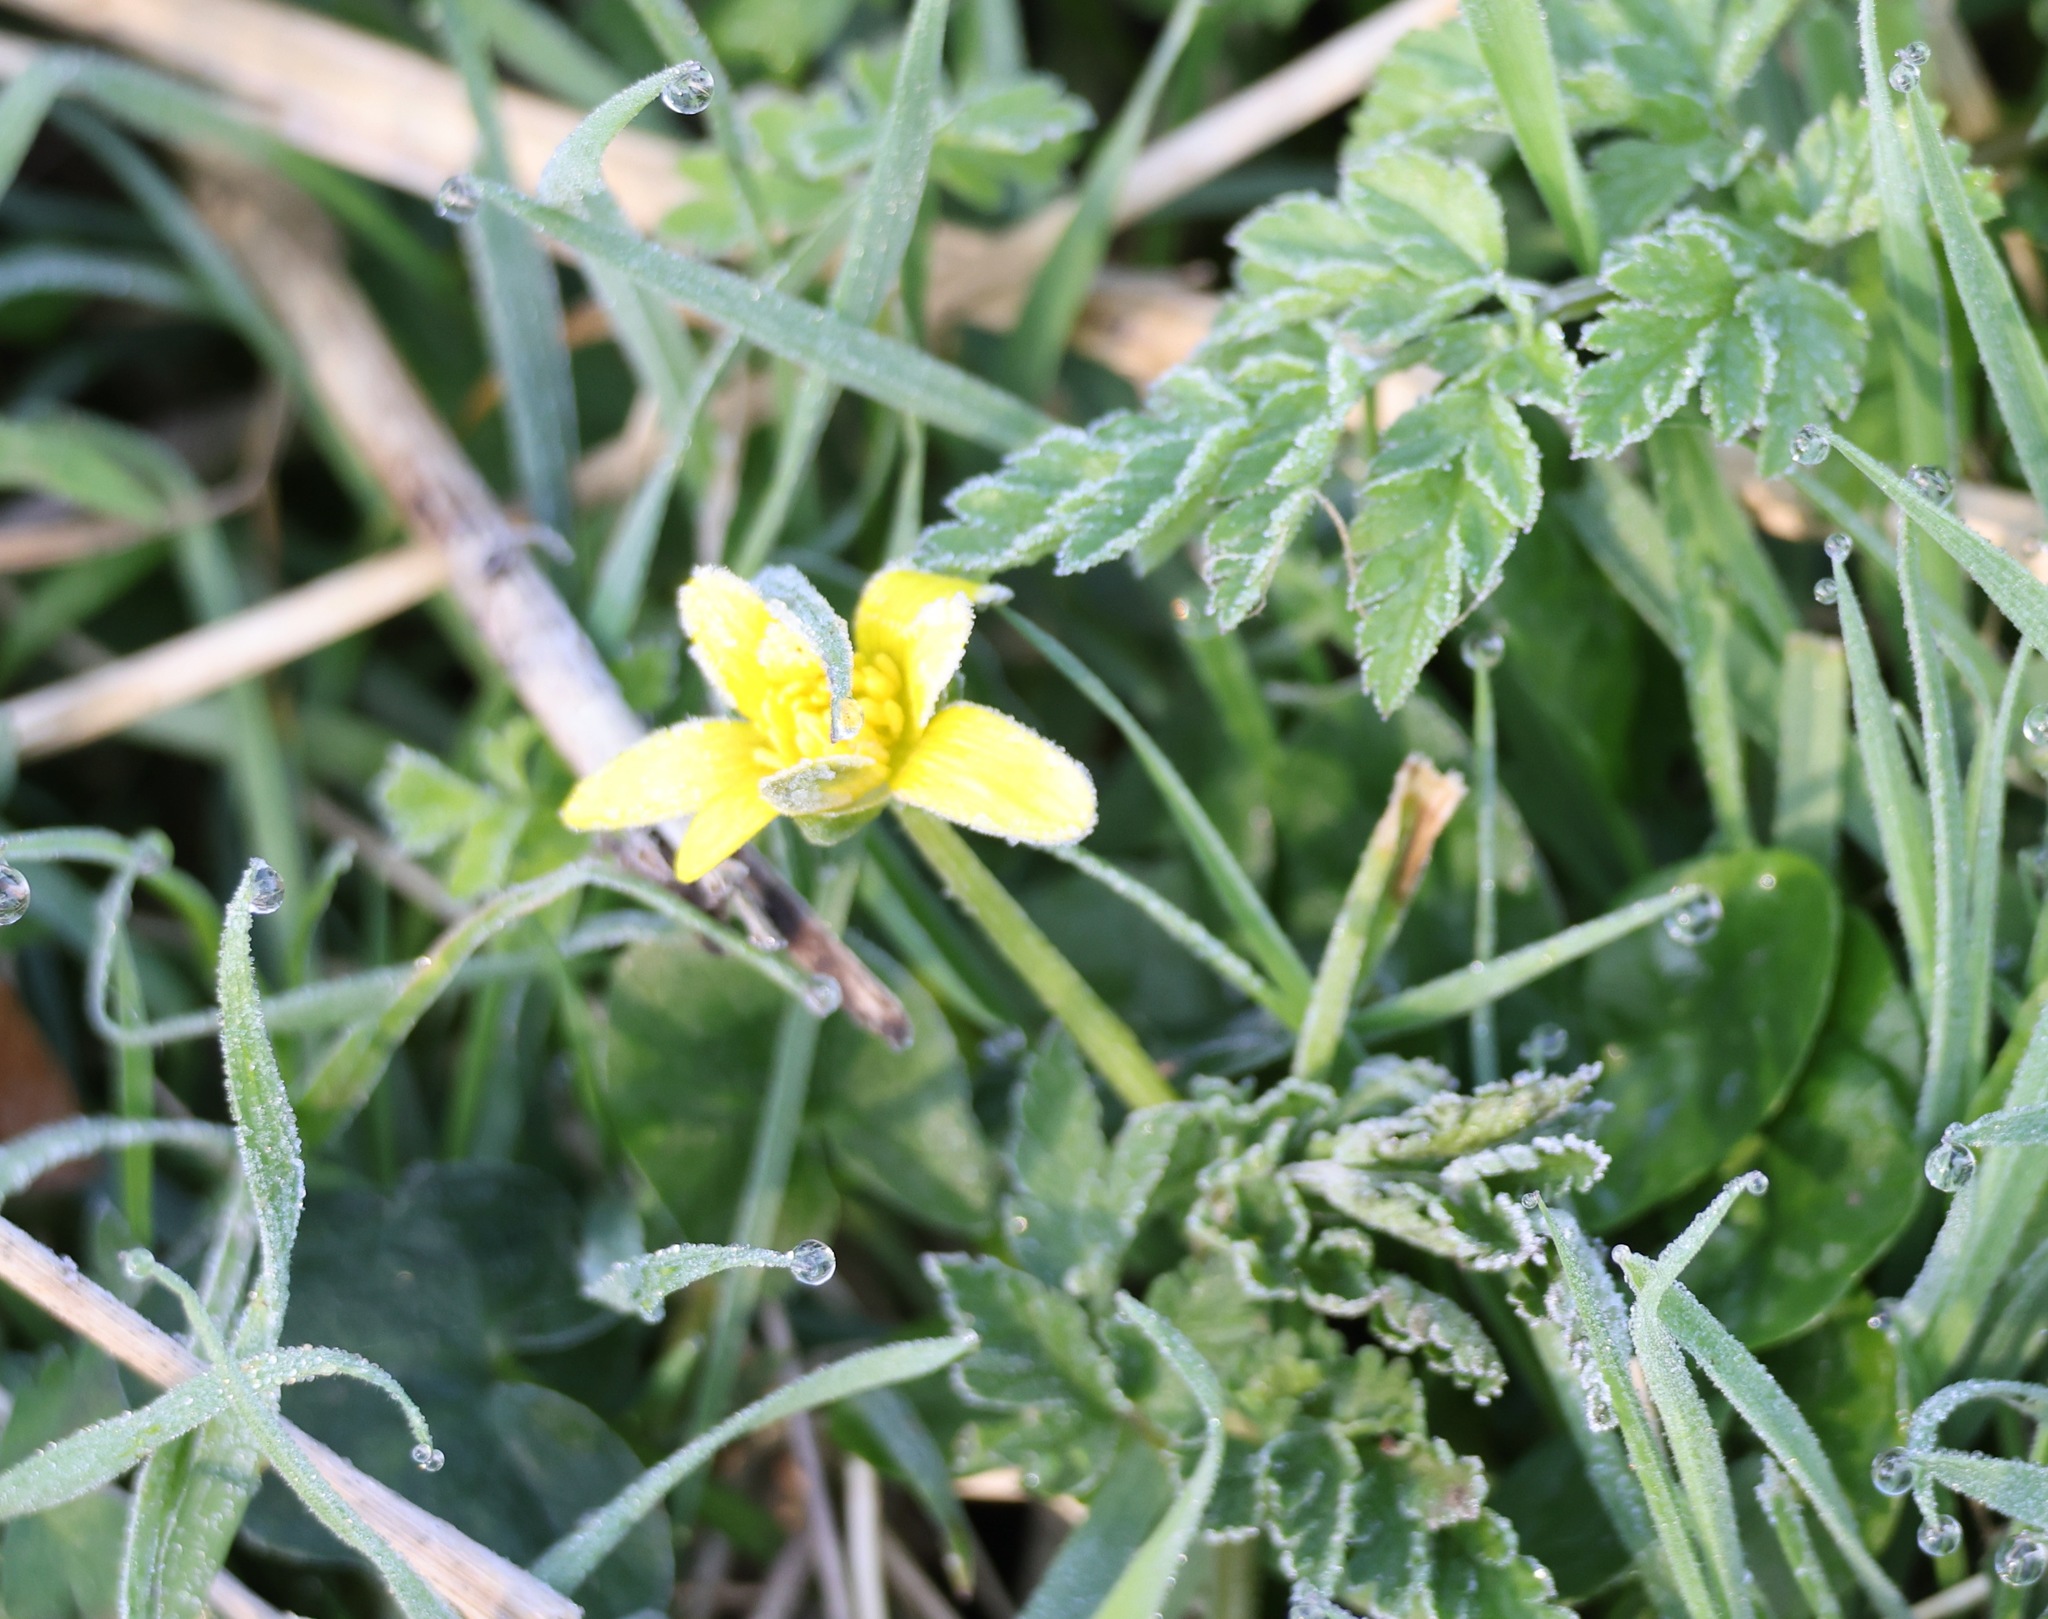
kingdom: Plantae
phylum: Tracheophyta
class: Magnoliopsida
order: Ranunculales
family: Ranunculaceae
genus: Ficaria
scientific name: Ficaria verna
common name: Lesser celandine
